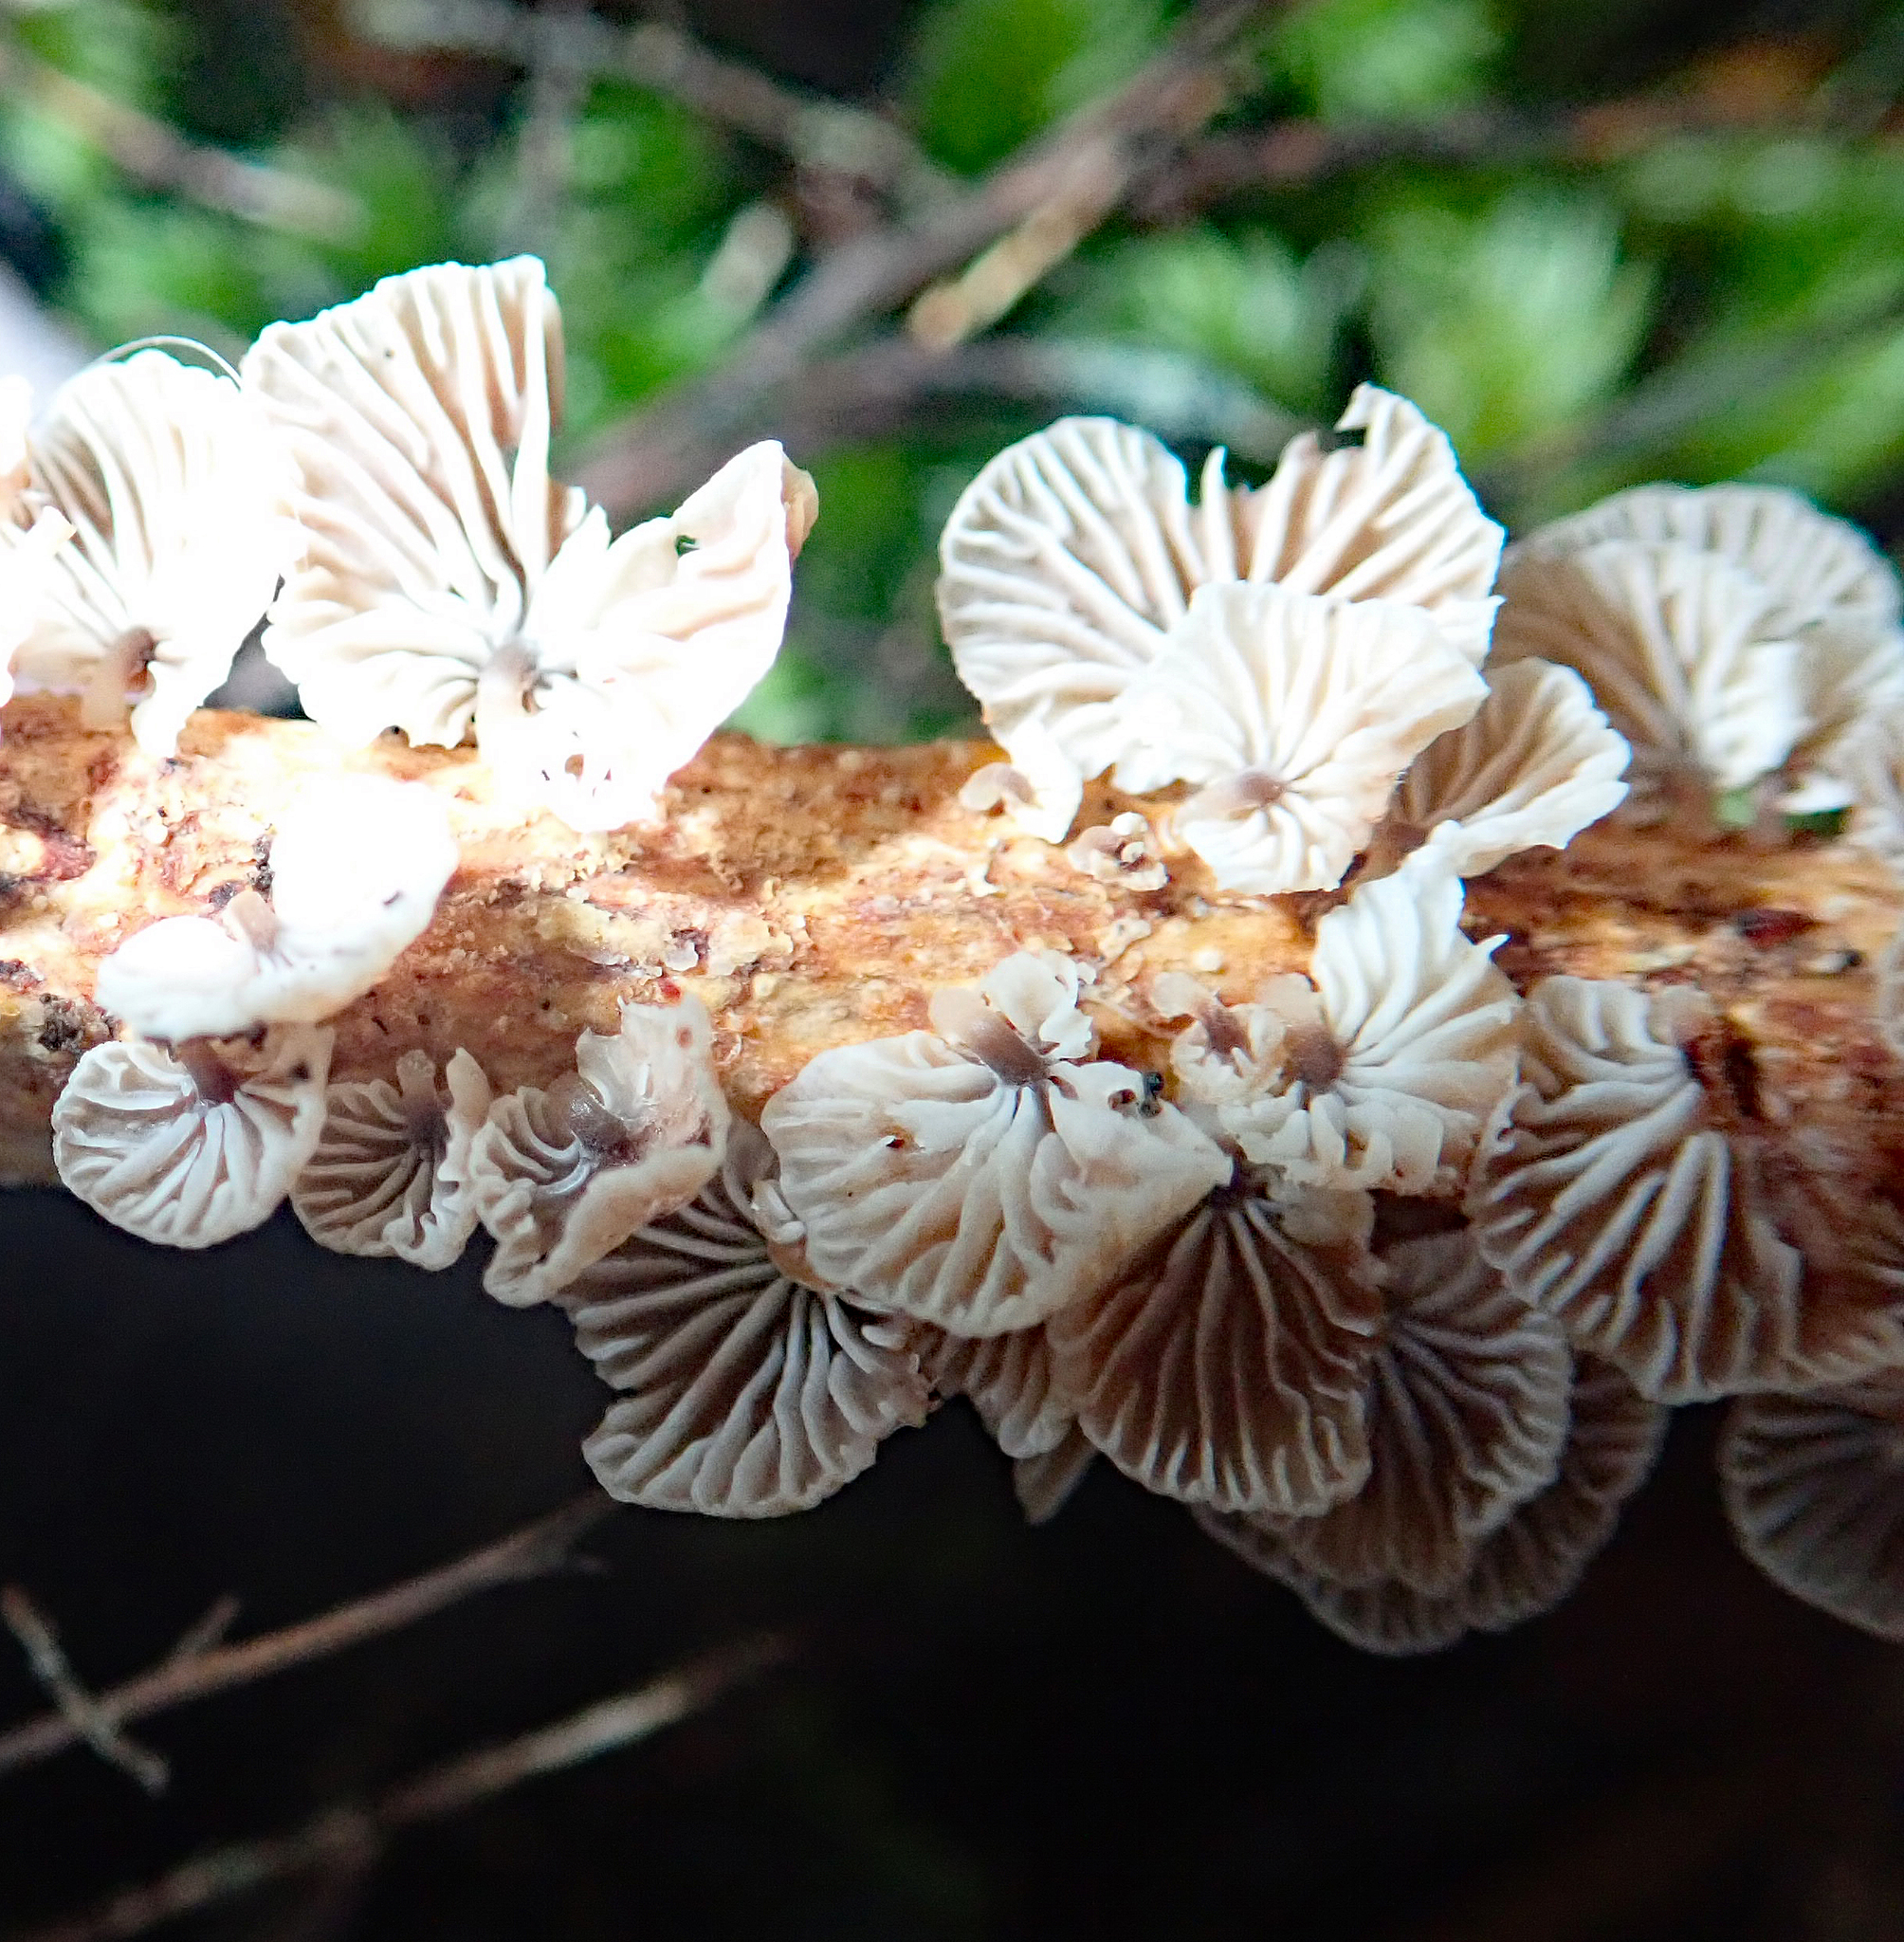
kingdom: Fungi
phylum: Basidiomycota
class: Agaricomycetes
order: Agaricales
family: Omphalotaceae
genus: Gymnopus
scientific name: Gymnopus imbricatus
